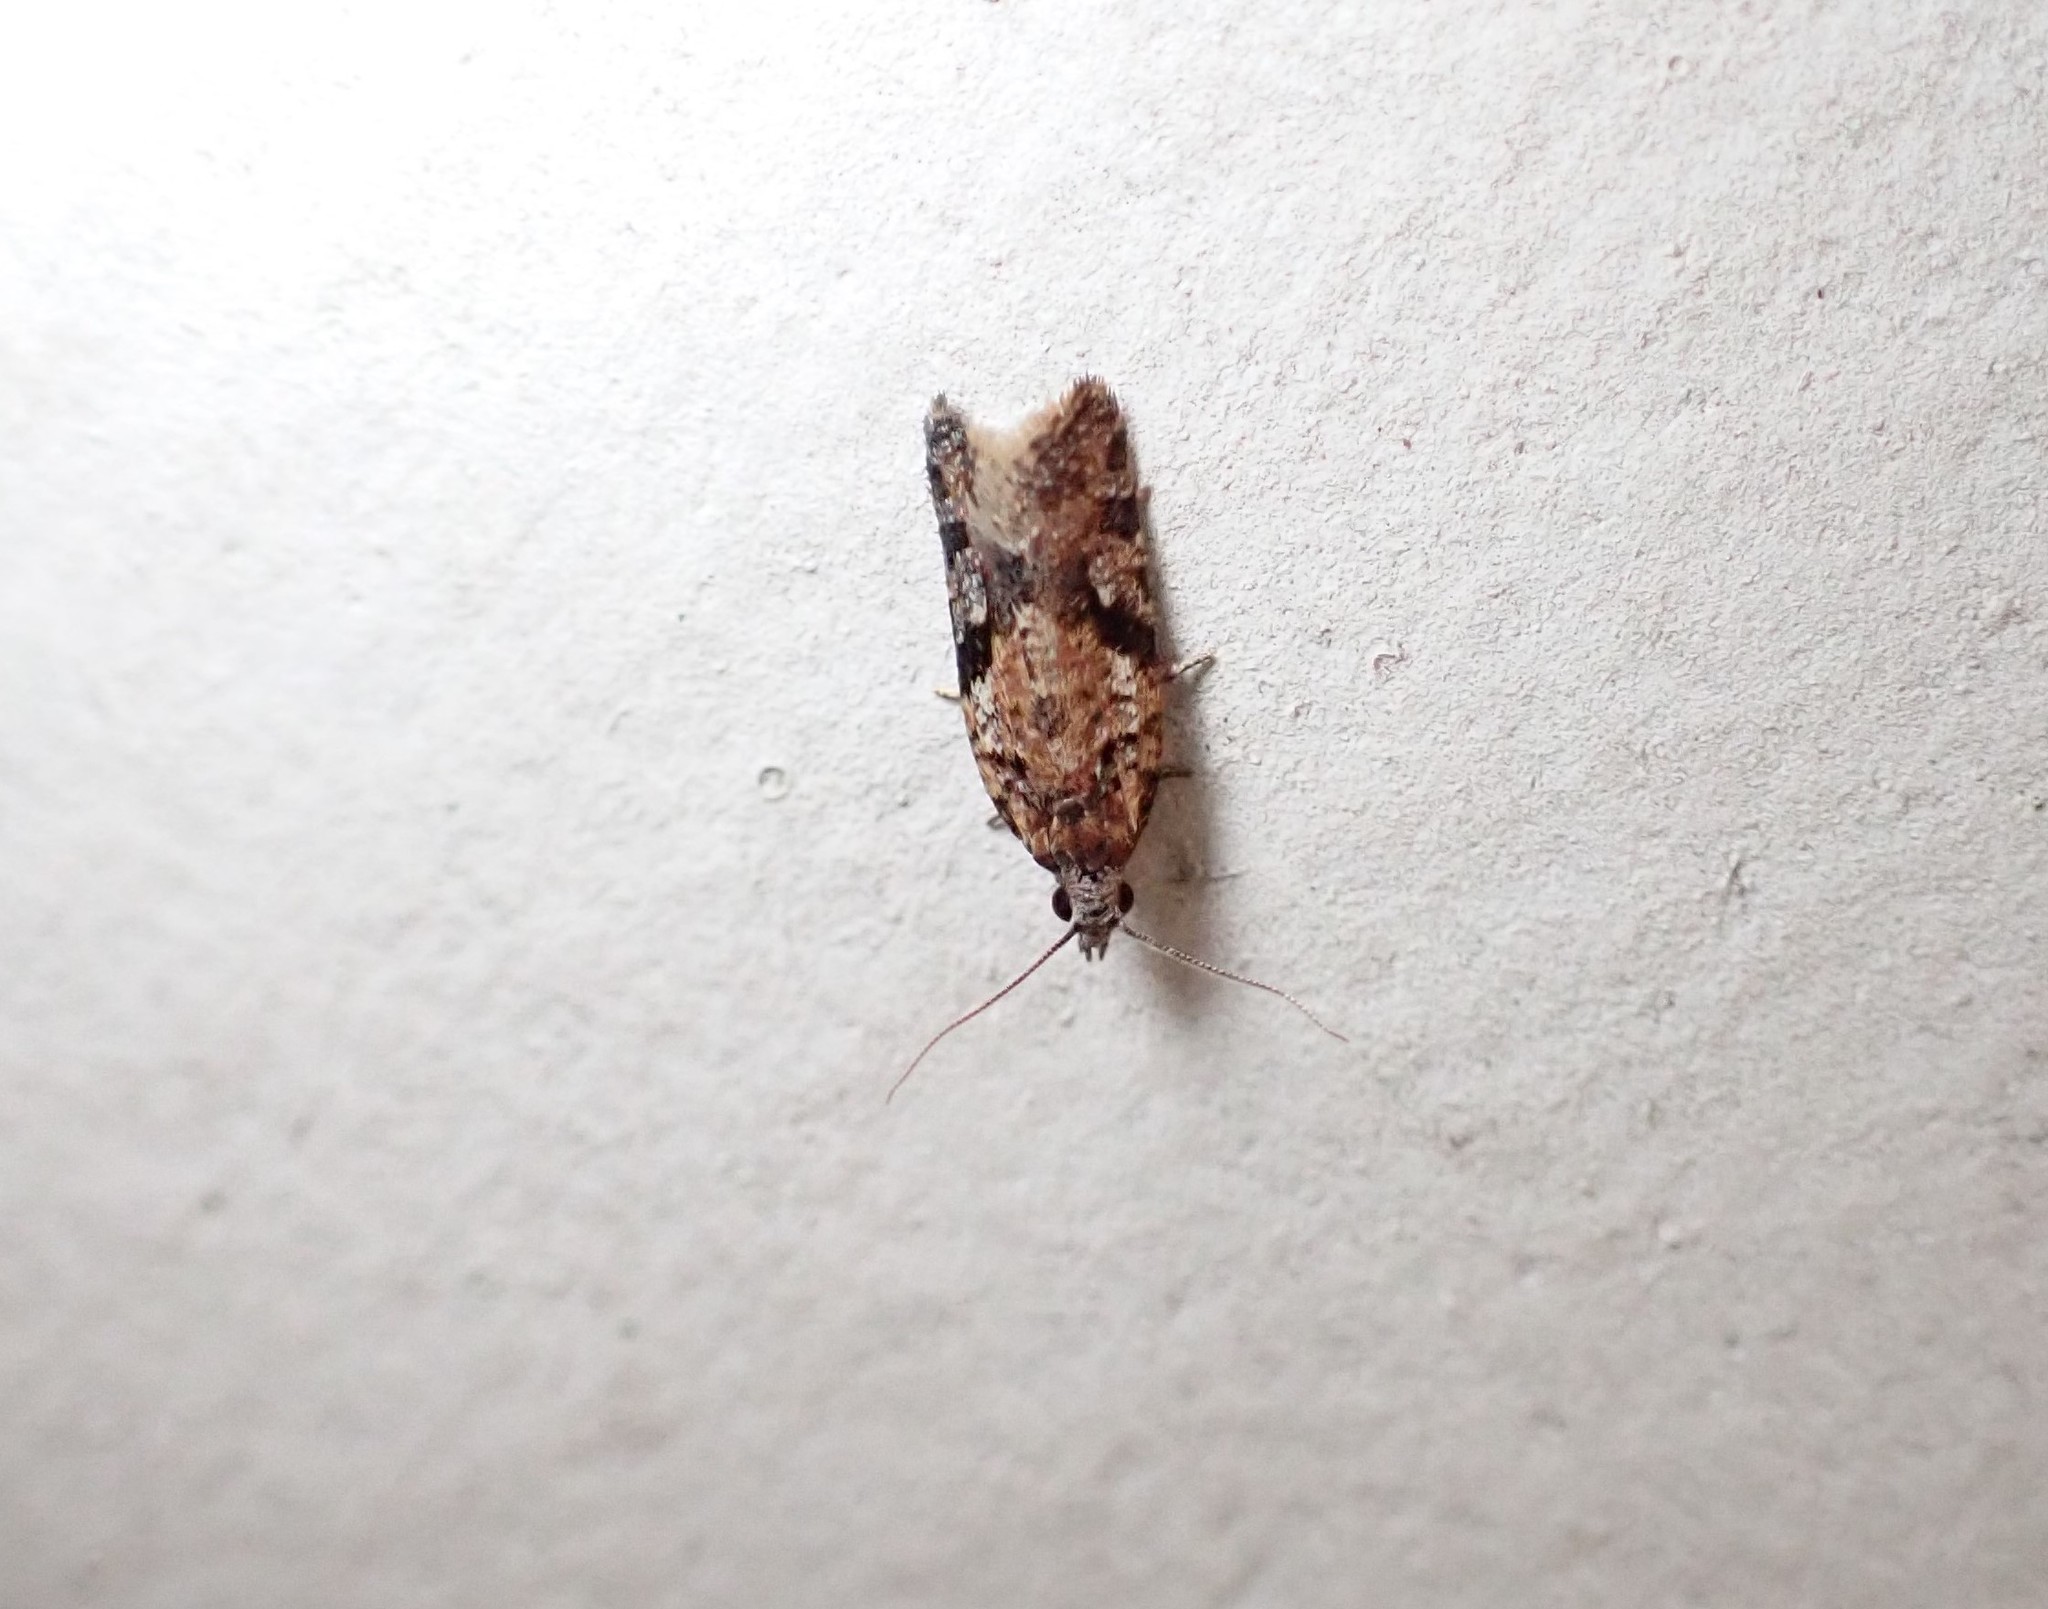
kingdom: Animalia
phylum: Arthropoda
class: Insecta
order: Lepidoptera
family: Tortricidae
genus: Capua
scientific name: Capua semiferana
